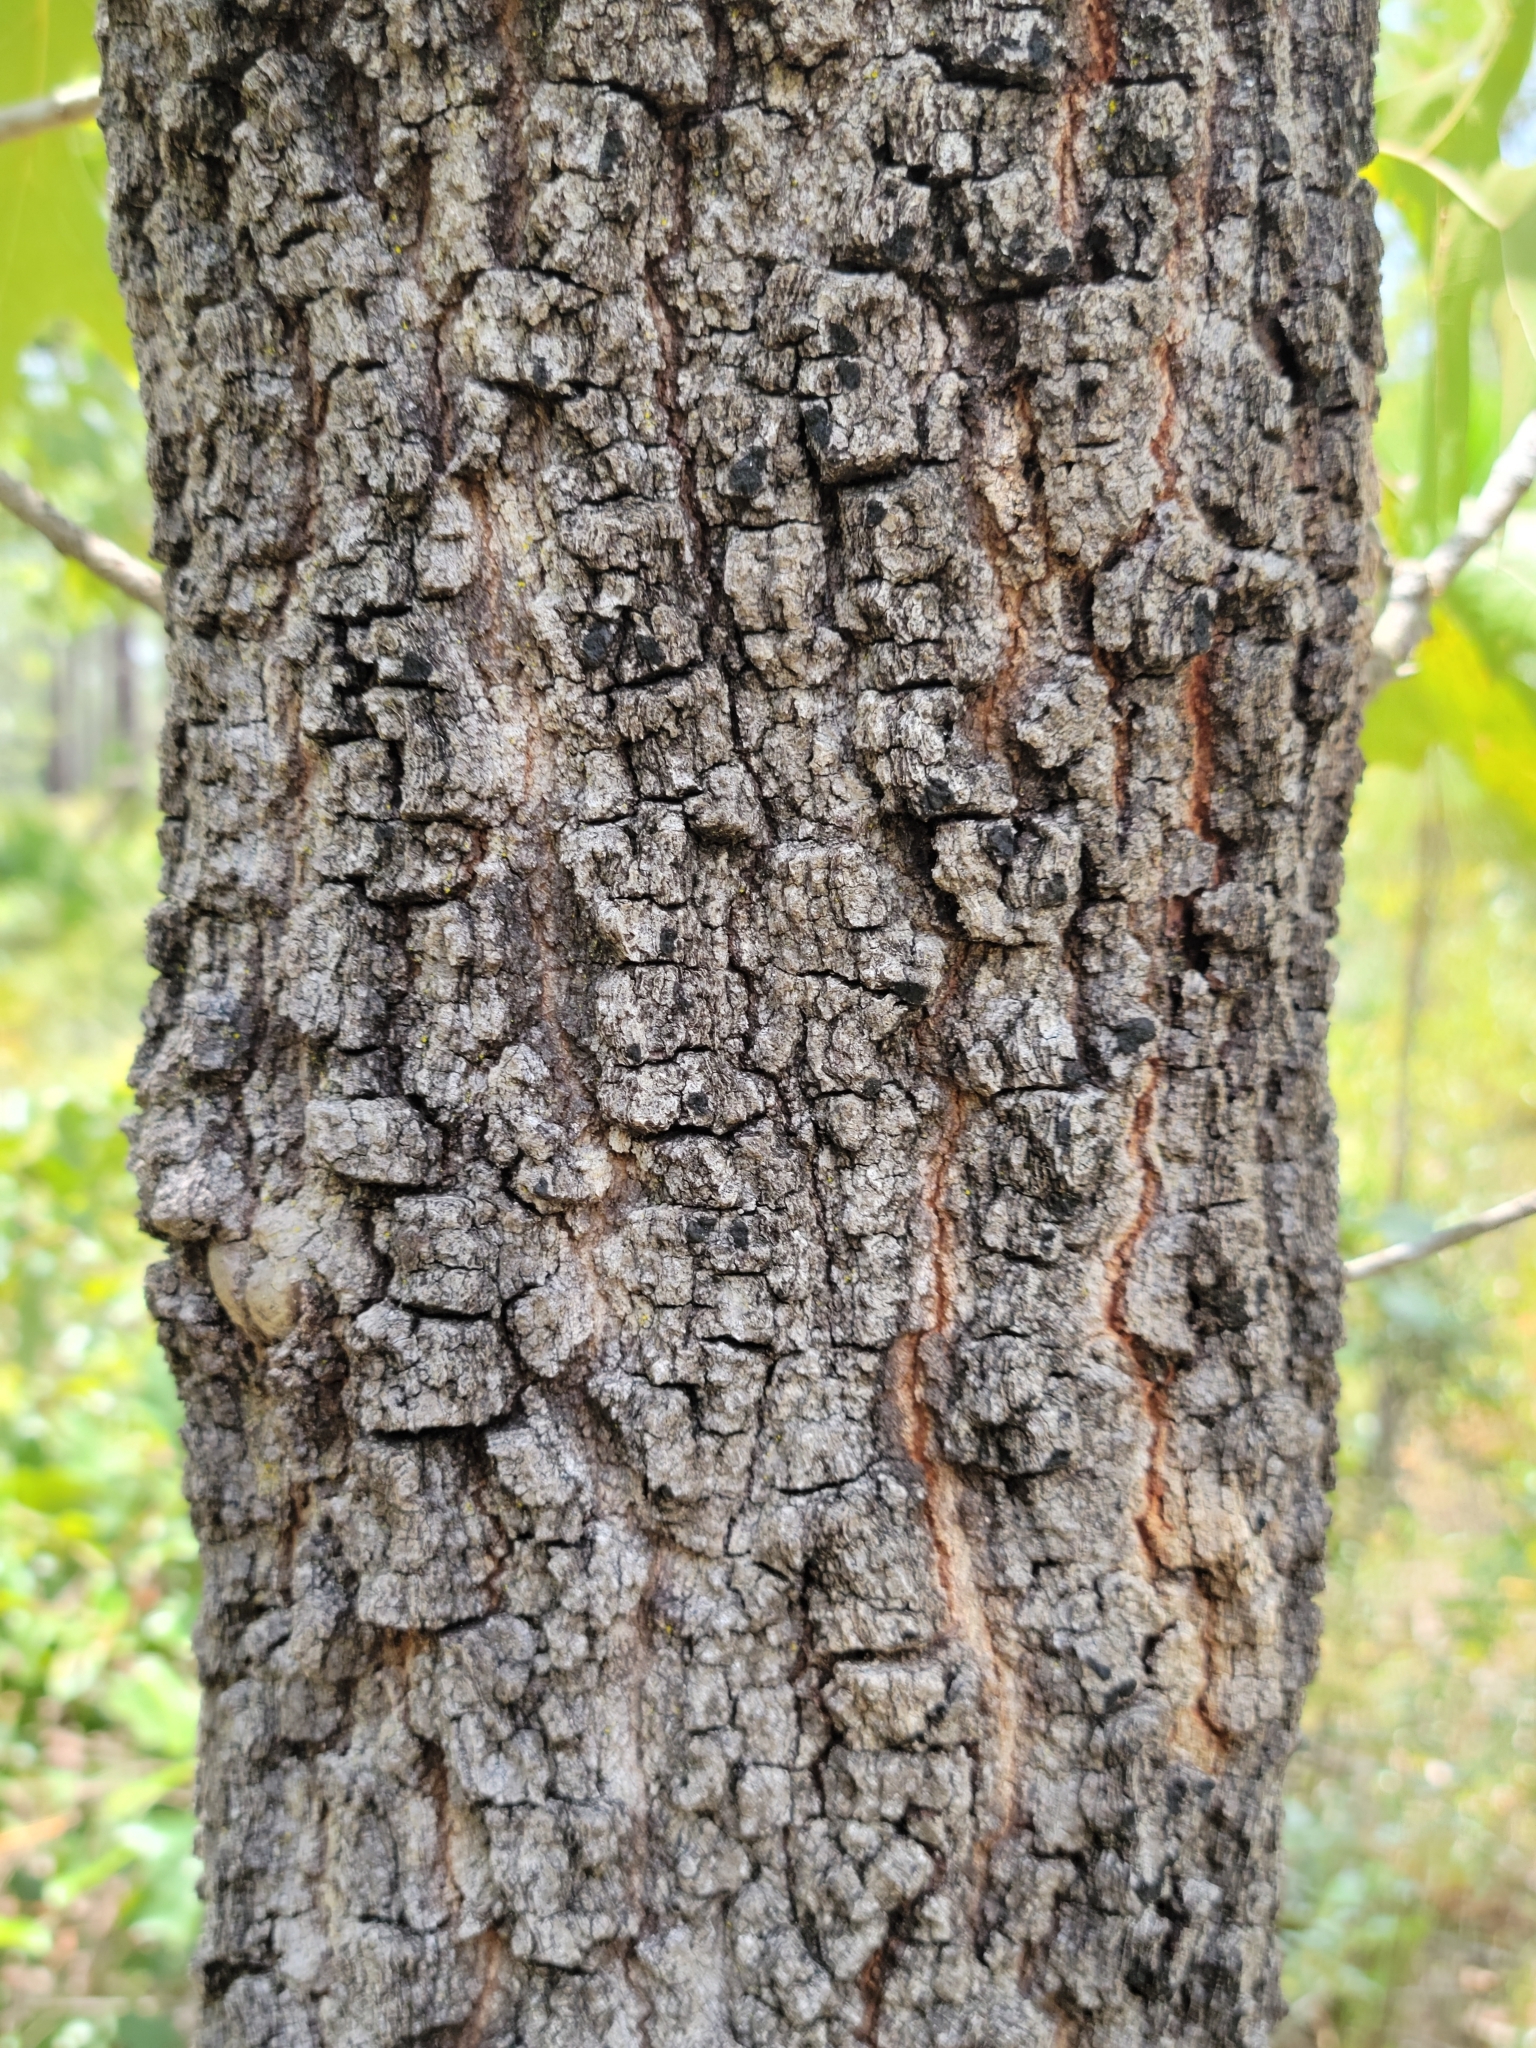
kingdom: Plantae
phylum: Tracheophyta
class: Magnoliopsida
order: Fagales
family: Fagaceae
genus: Quercus
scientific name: Quercus laevis
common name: Turkey oak
